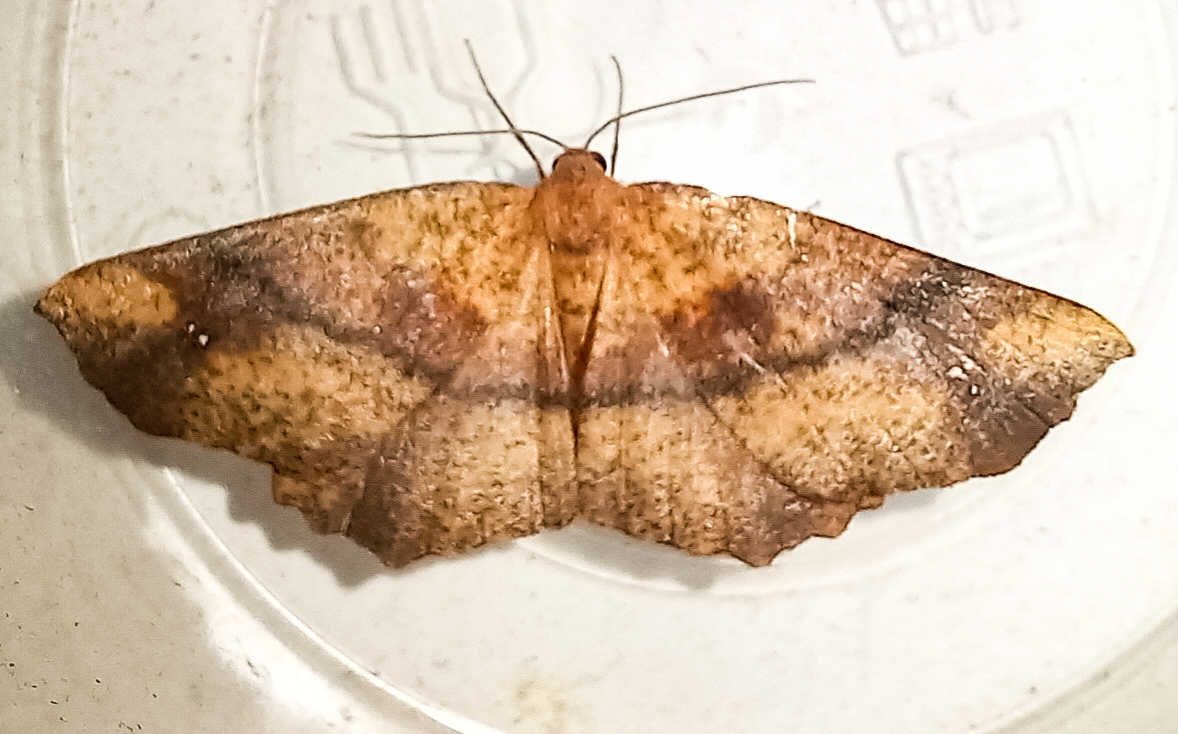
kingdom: Animalia
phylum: Arthropoda
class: Insecta
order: Lepidoptera
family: Geometridae
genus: Xyridacma
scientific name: Xyridacma ustaria
